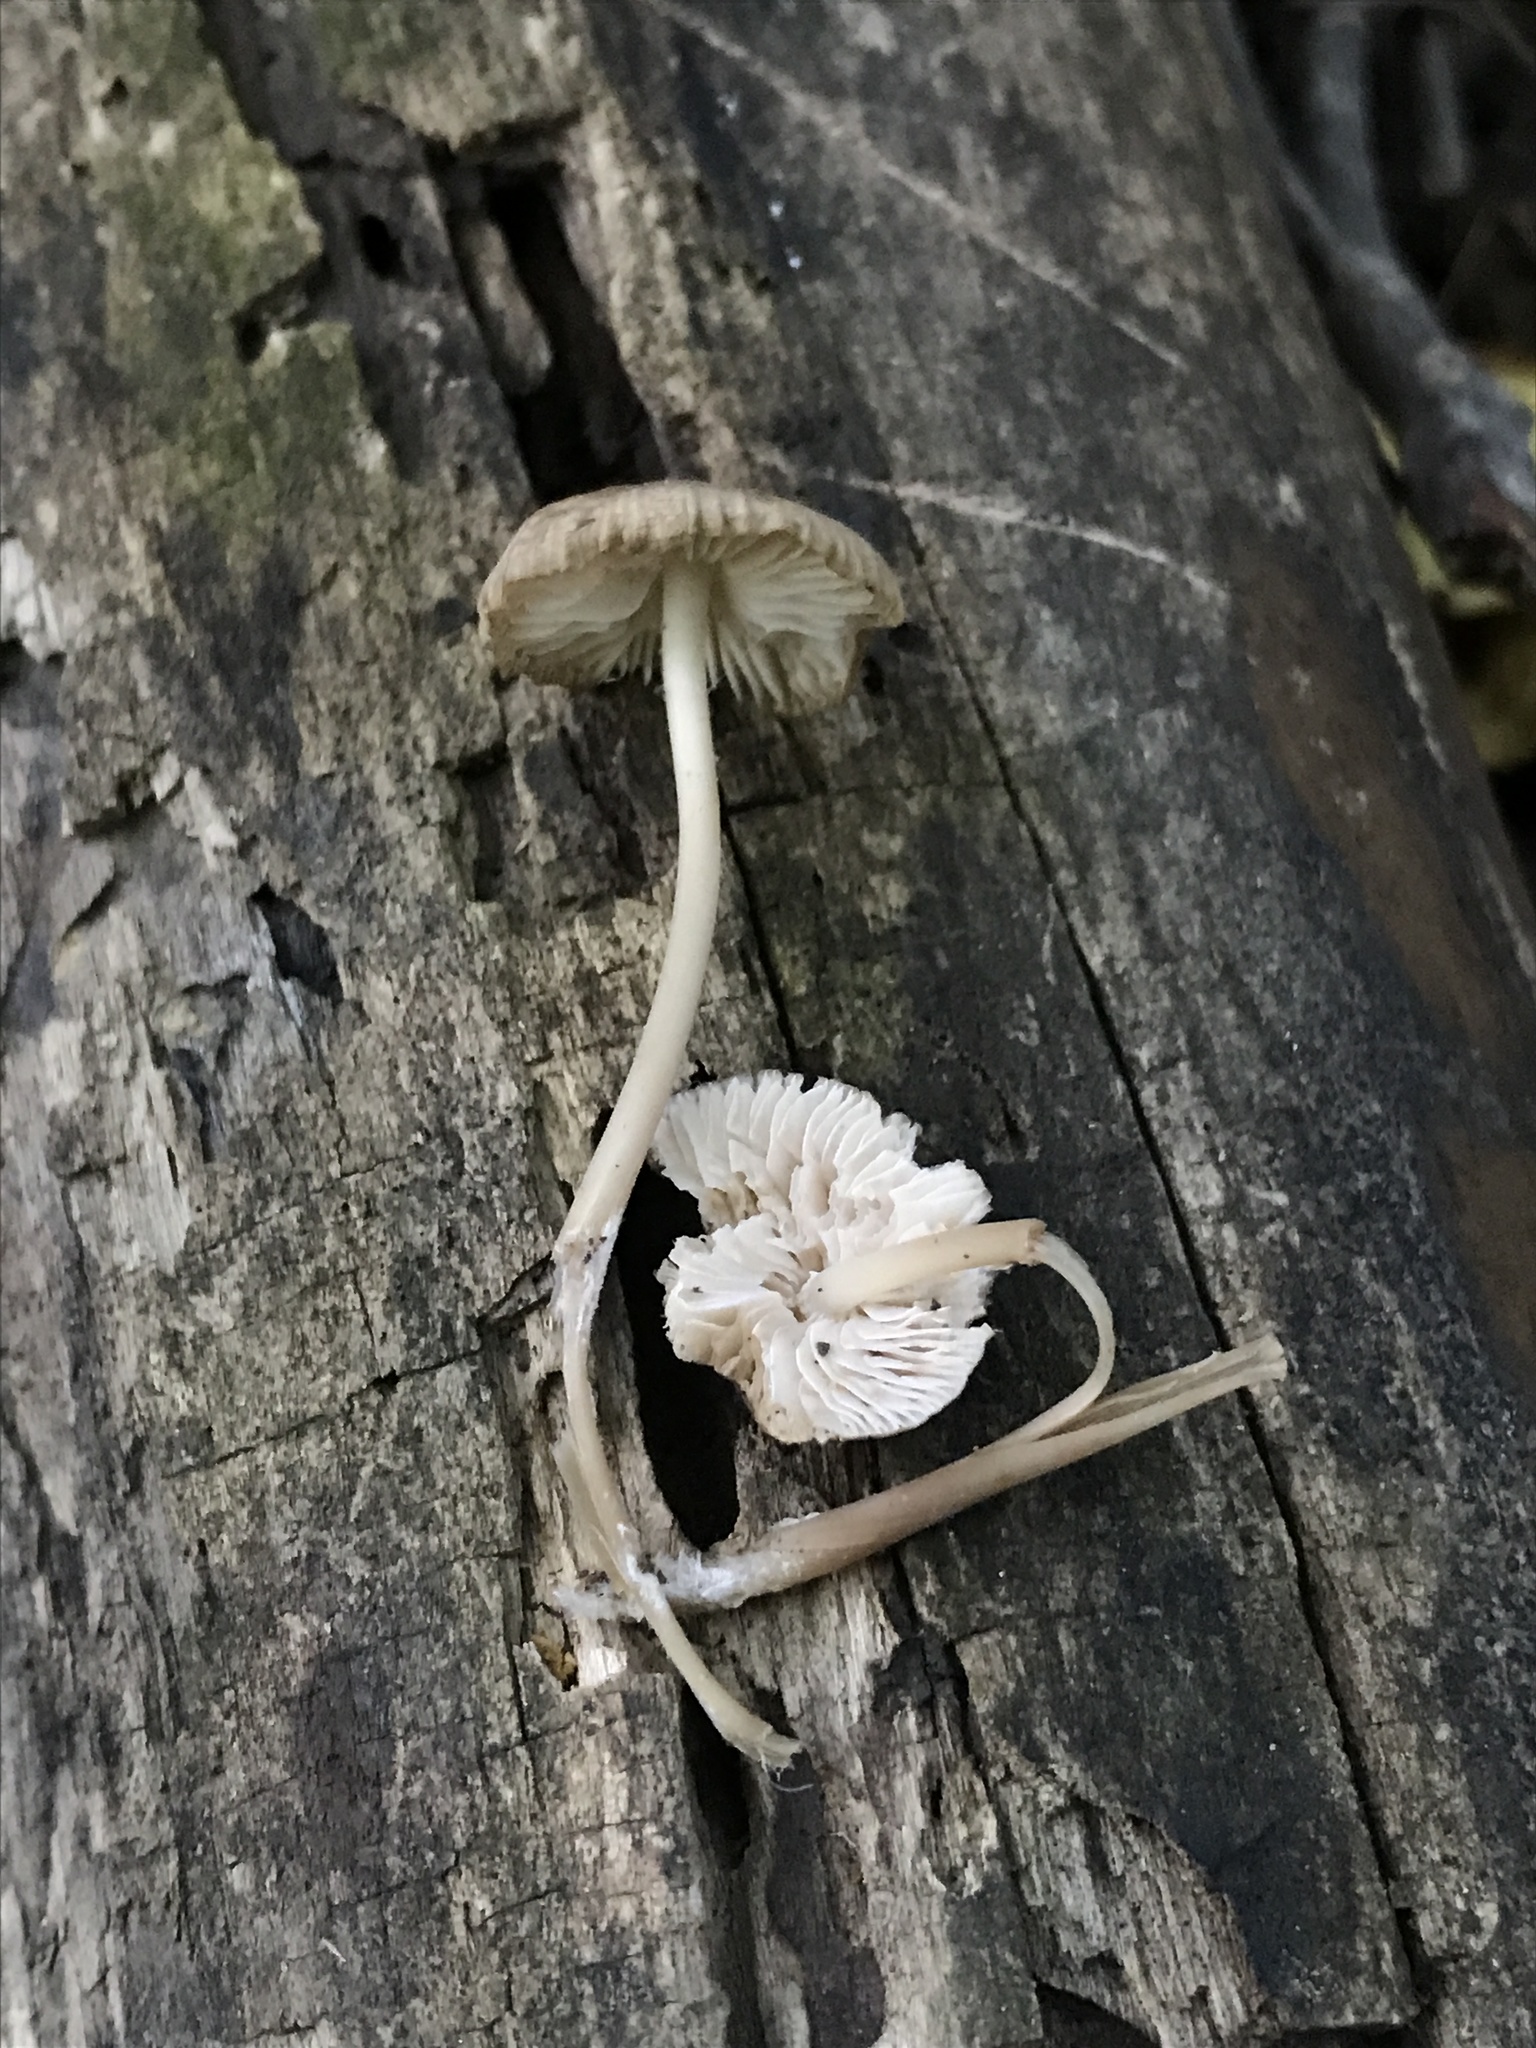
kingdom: Fungi
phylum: Basidiomycota
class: Agaricomycetes
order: Agaricales
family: Mycenaceae
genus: Mycena
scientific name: Mycena galericulata
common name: Bonnet mycena
